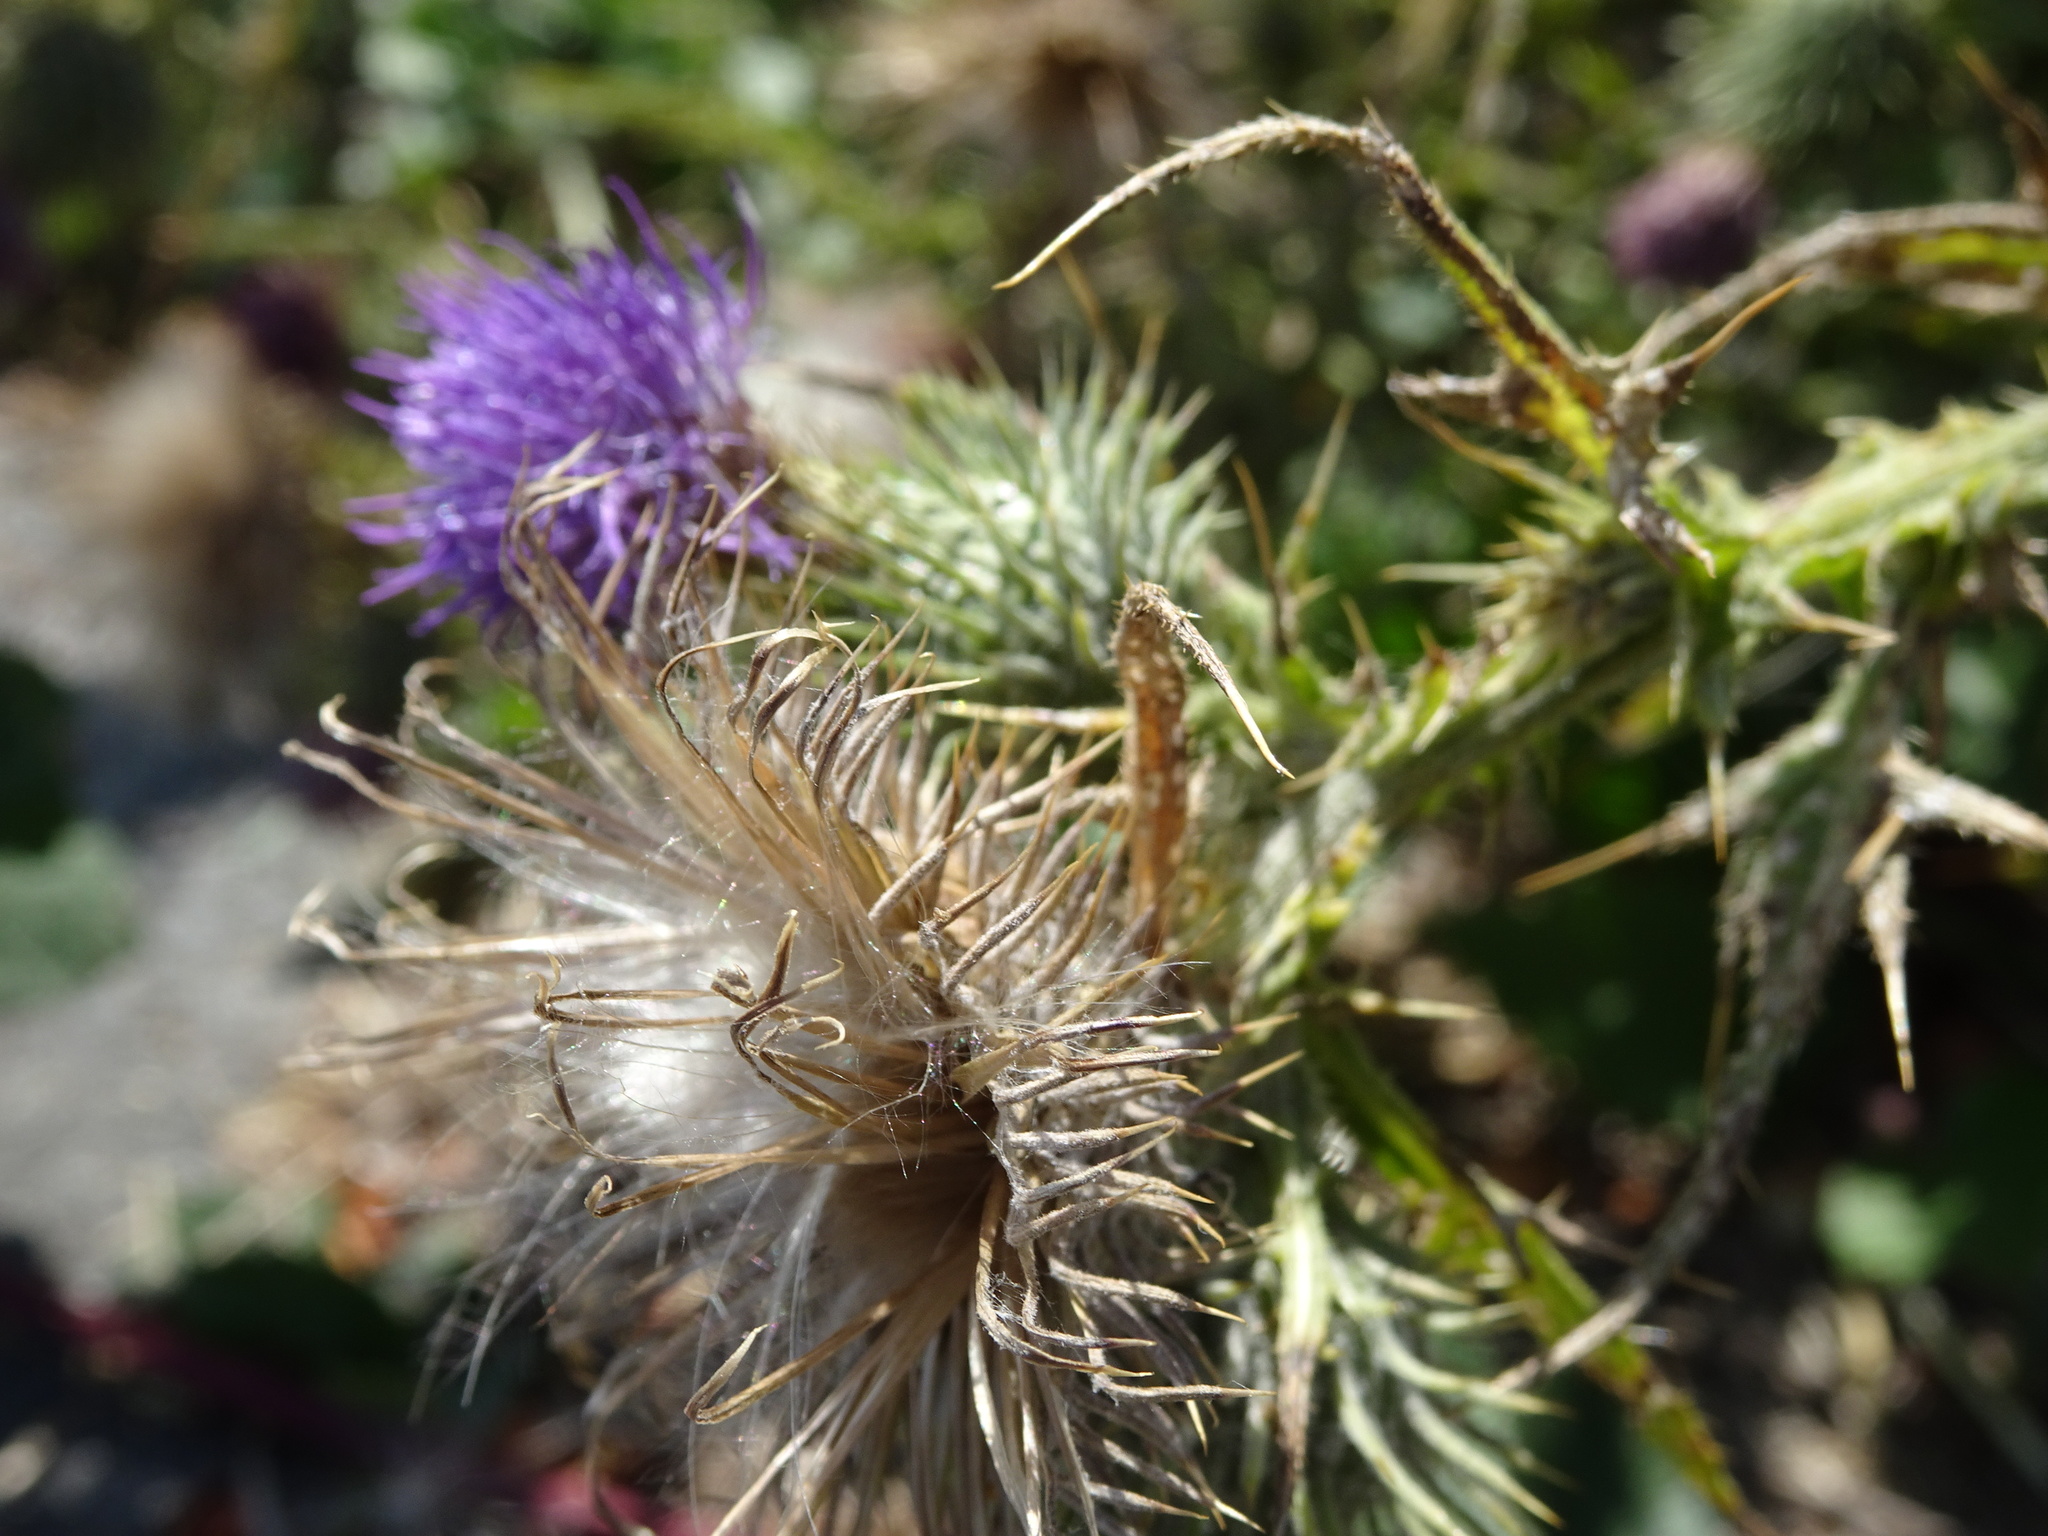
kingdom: Plantae
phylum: Tracheophyta
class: Magnoliopsida
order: Asterales
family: Asteraceae
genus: Cirsium
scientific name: Cirsium vulgare
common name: Bull thistle
